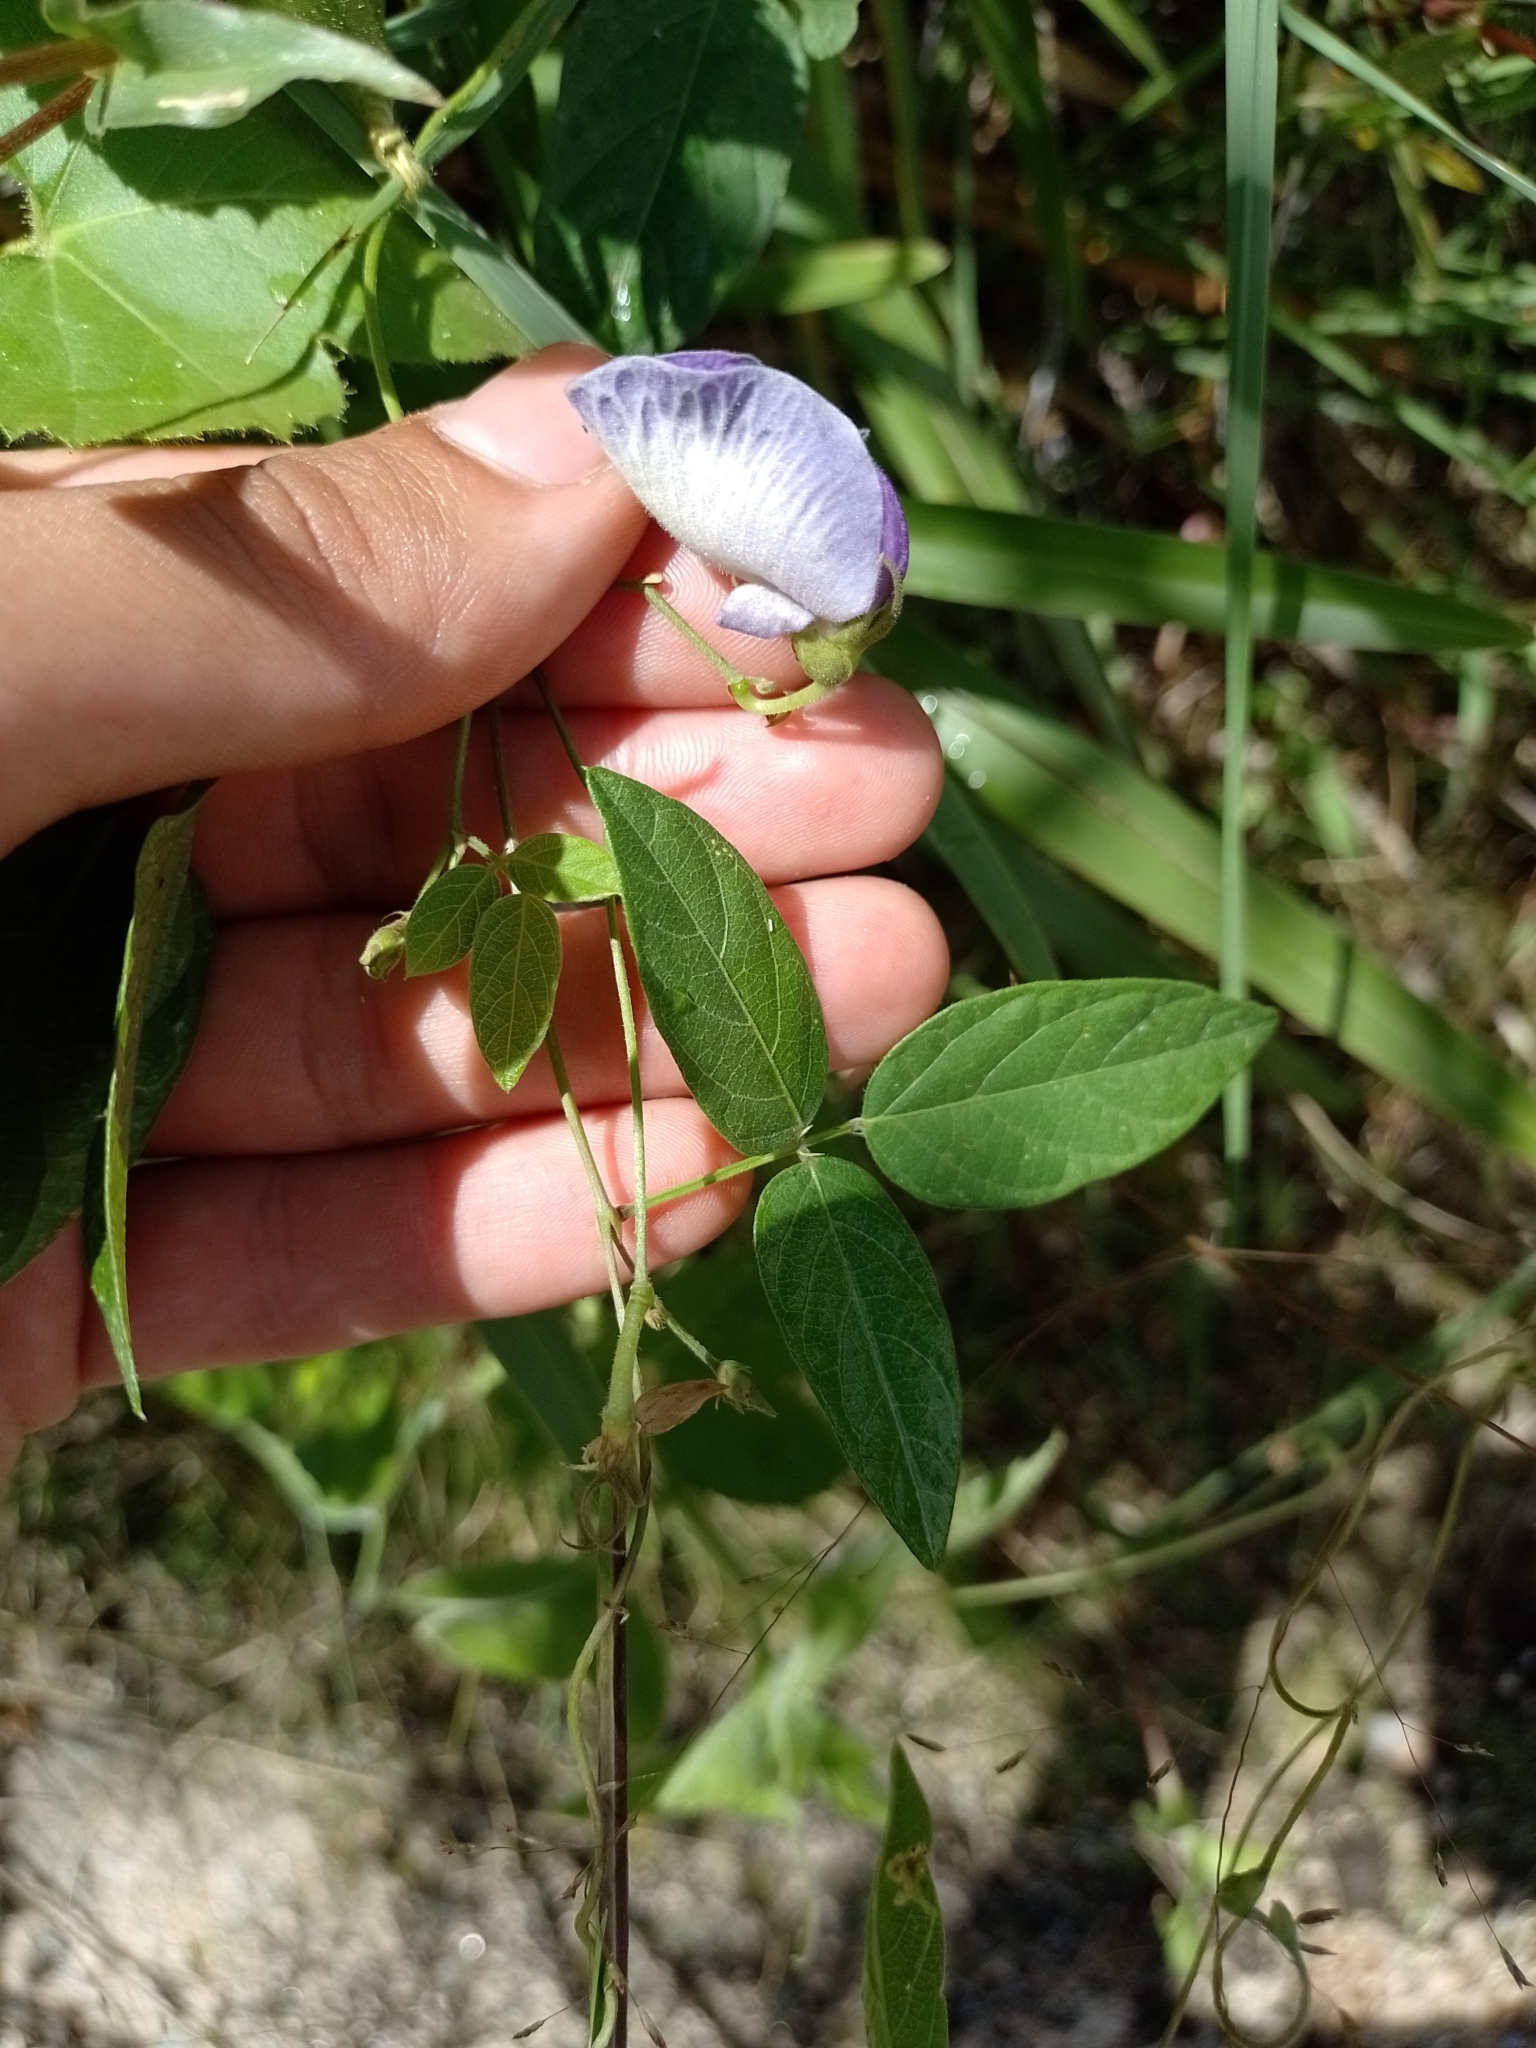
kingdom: Plantae
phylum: Tracheophyta
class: Magnoliopsida
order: Fabales
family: Fabaceae
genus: Centrosema
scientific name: Centrosema virginianum
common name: Butterfly-pea
